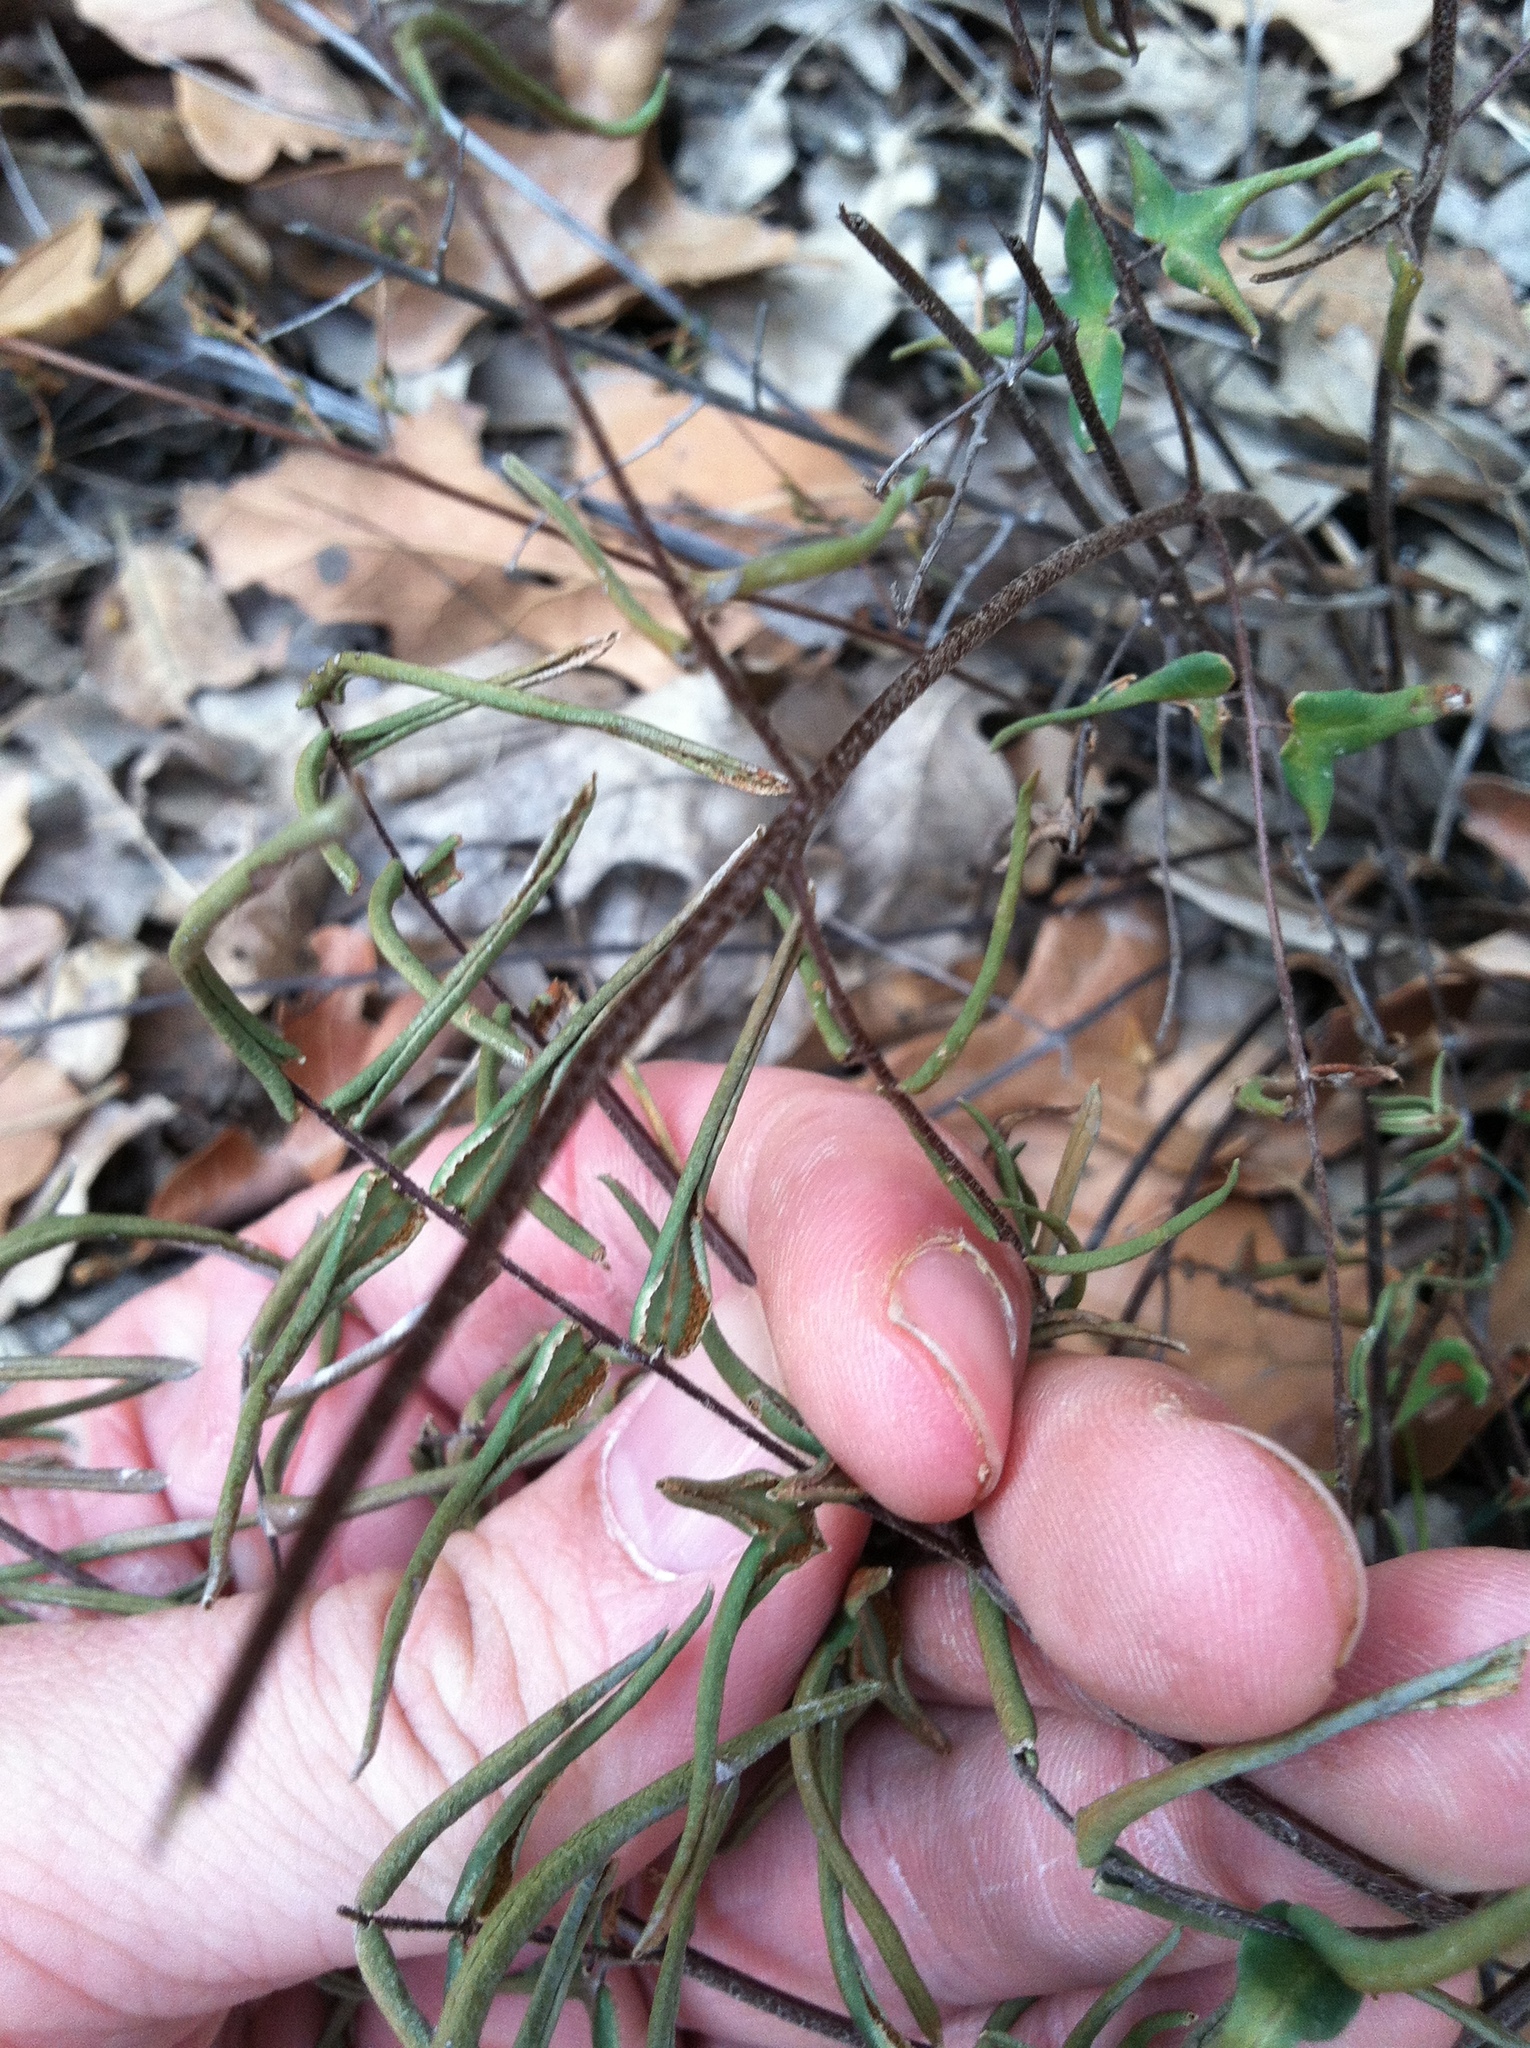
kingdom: Plantae
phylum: Tracheophyta
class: Polypodiopsida
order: Polypodiales
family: Pteridaceae
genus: Pellaea
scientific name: Pellaea atropurpurea
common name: Hairy cliffbrake
